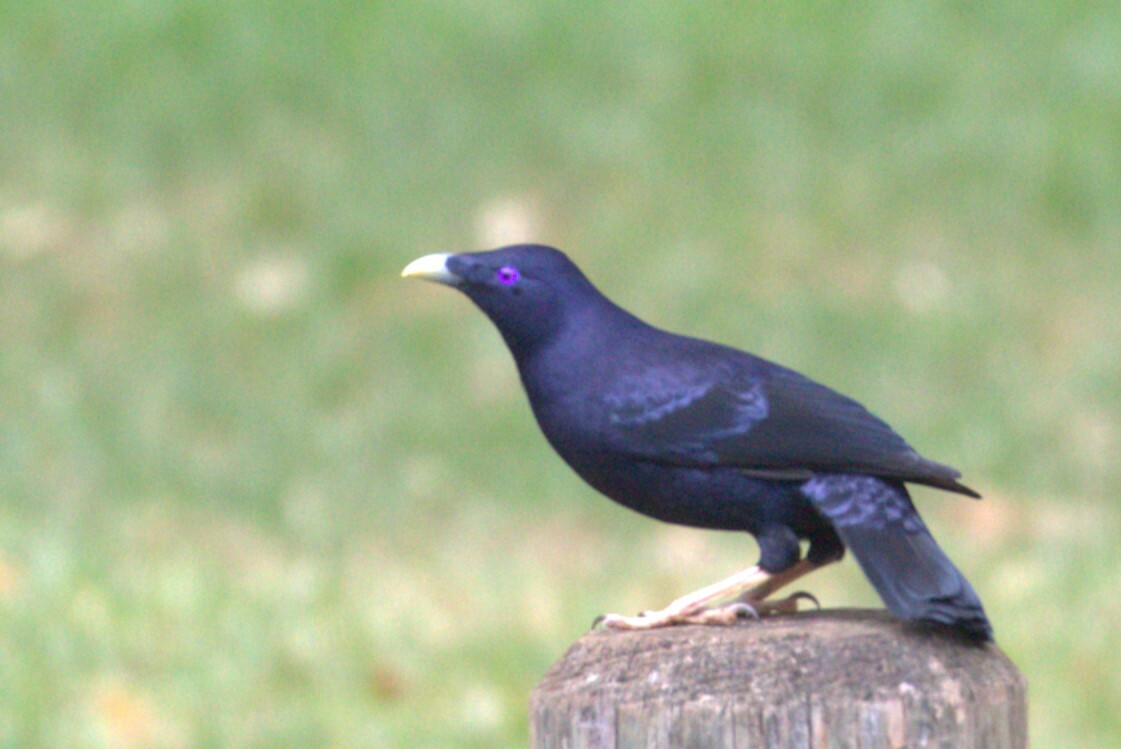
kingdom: Animalia
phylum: Chordata
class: Aves
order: Passeriformes
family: Ptilonorhynchidae
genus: Ptilonorhynchus
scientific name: Ptilonorhynchus violaceus
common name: Satin bowerbird
